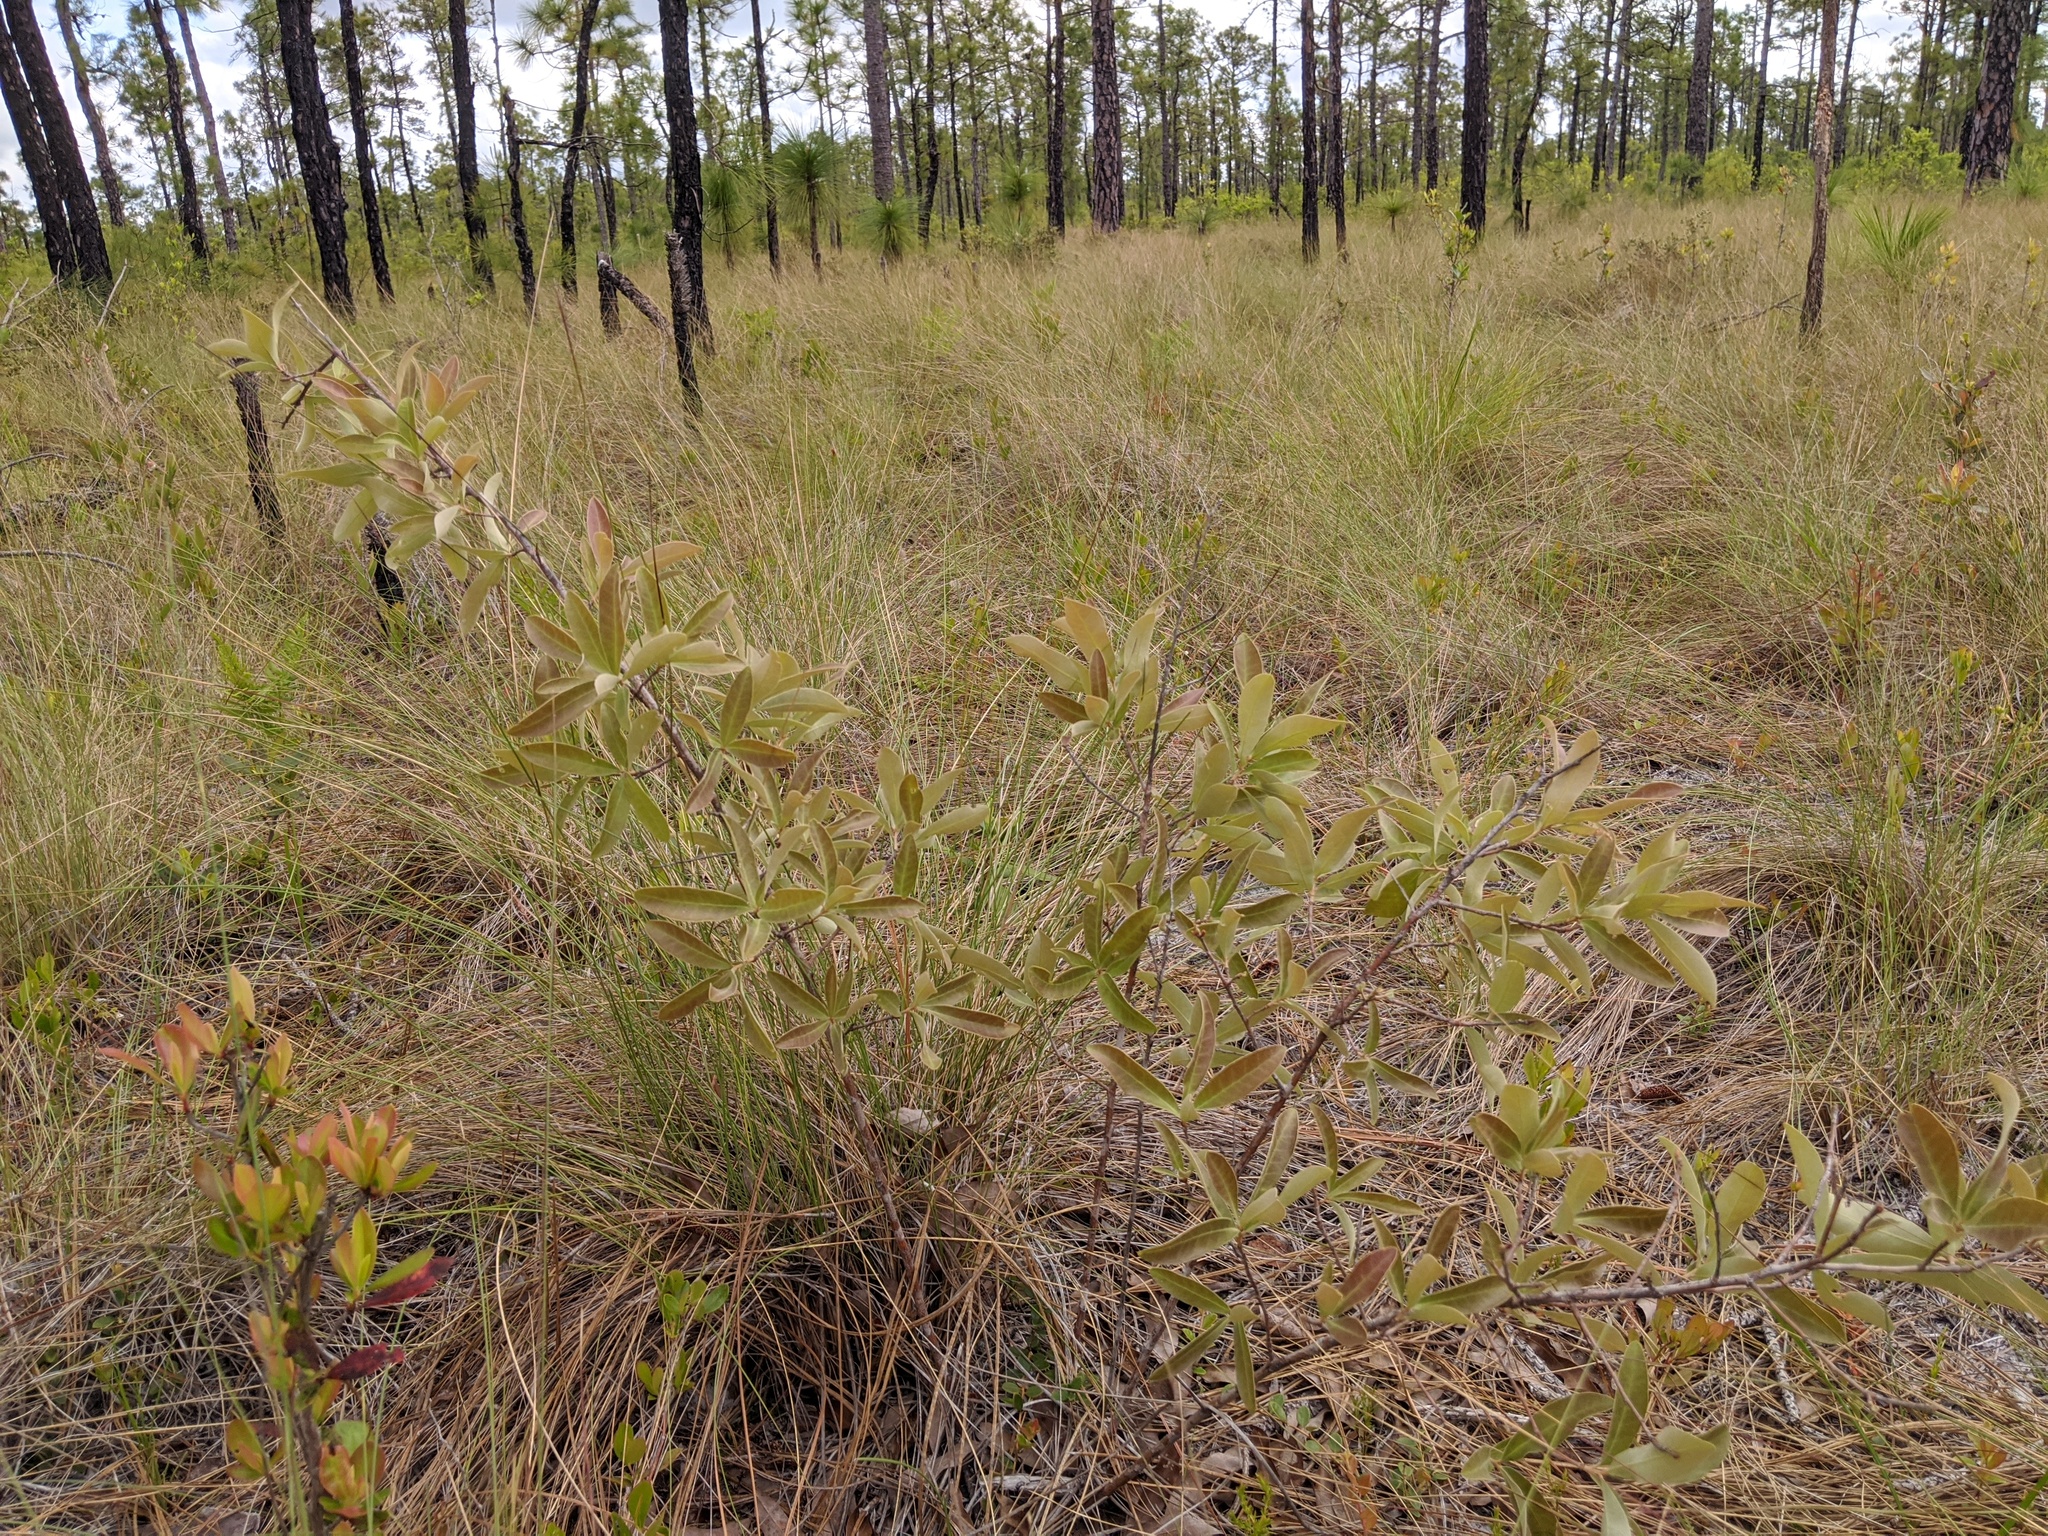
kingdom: Plantae
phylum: Tracheophyta
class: Magnoliopsida
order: Fagales
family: Fagaceae
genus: Quercus
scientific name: Quercus incana
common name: Bluejack oak
